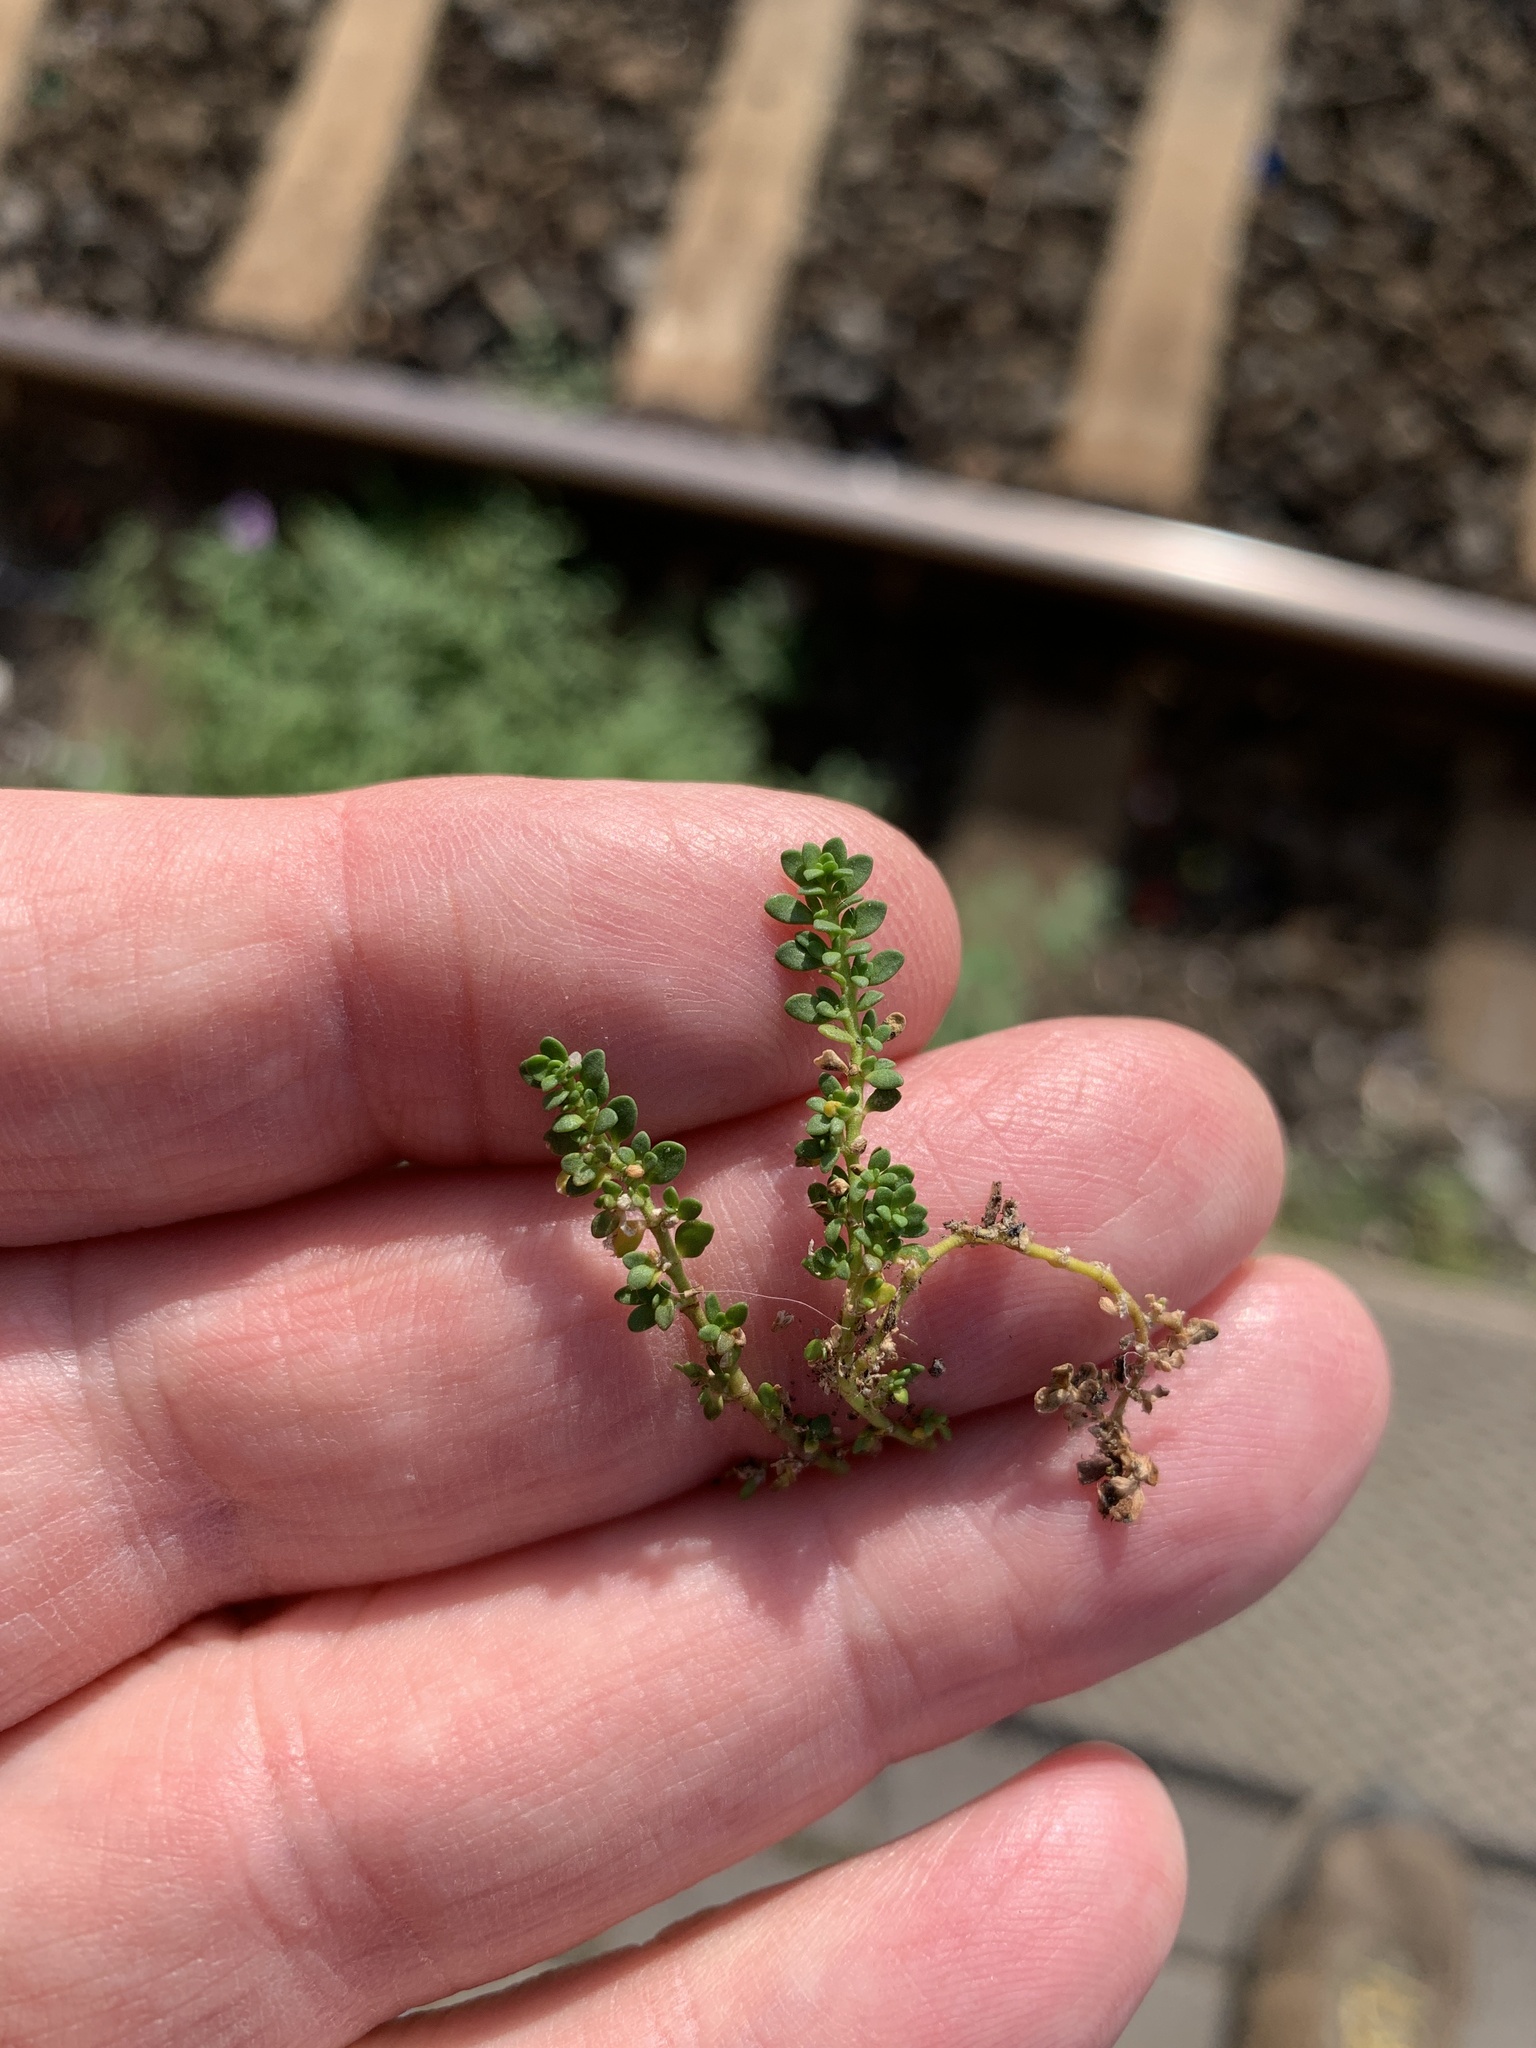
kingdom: Plantae
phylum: Tracheophyta
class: Magnoliopsida
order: Caryophyllales
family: Caryophyllaceae
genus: Herniaria
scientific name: Herniaria glabra
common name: Smooth rupturewort
